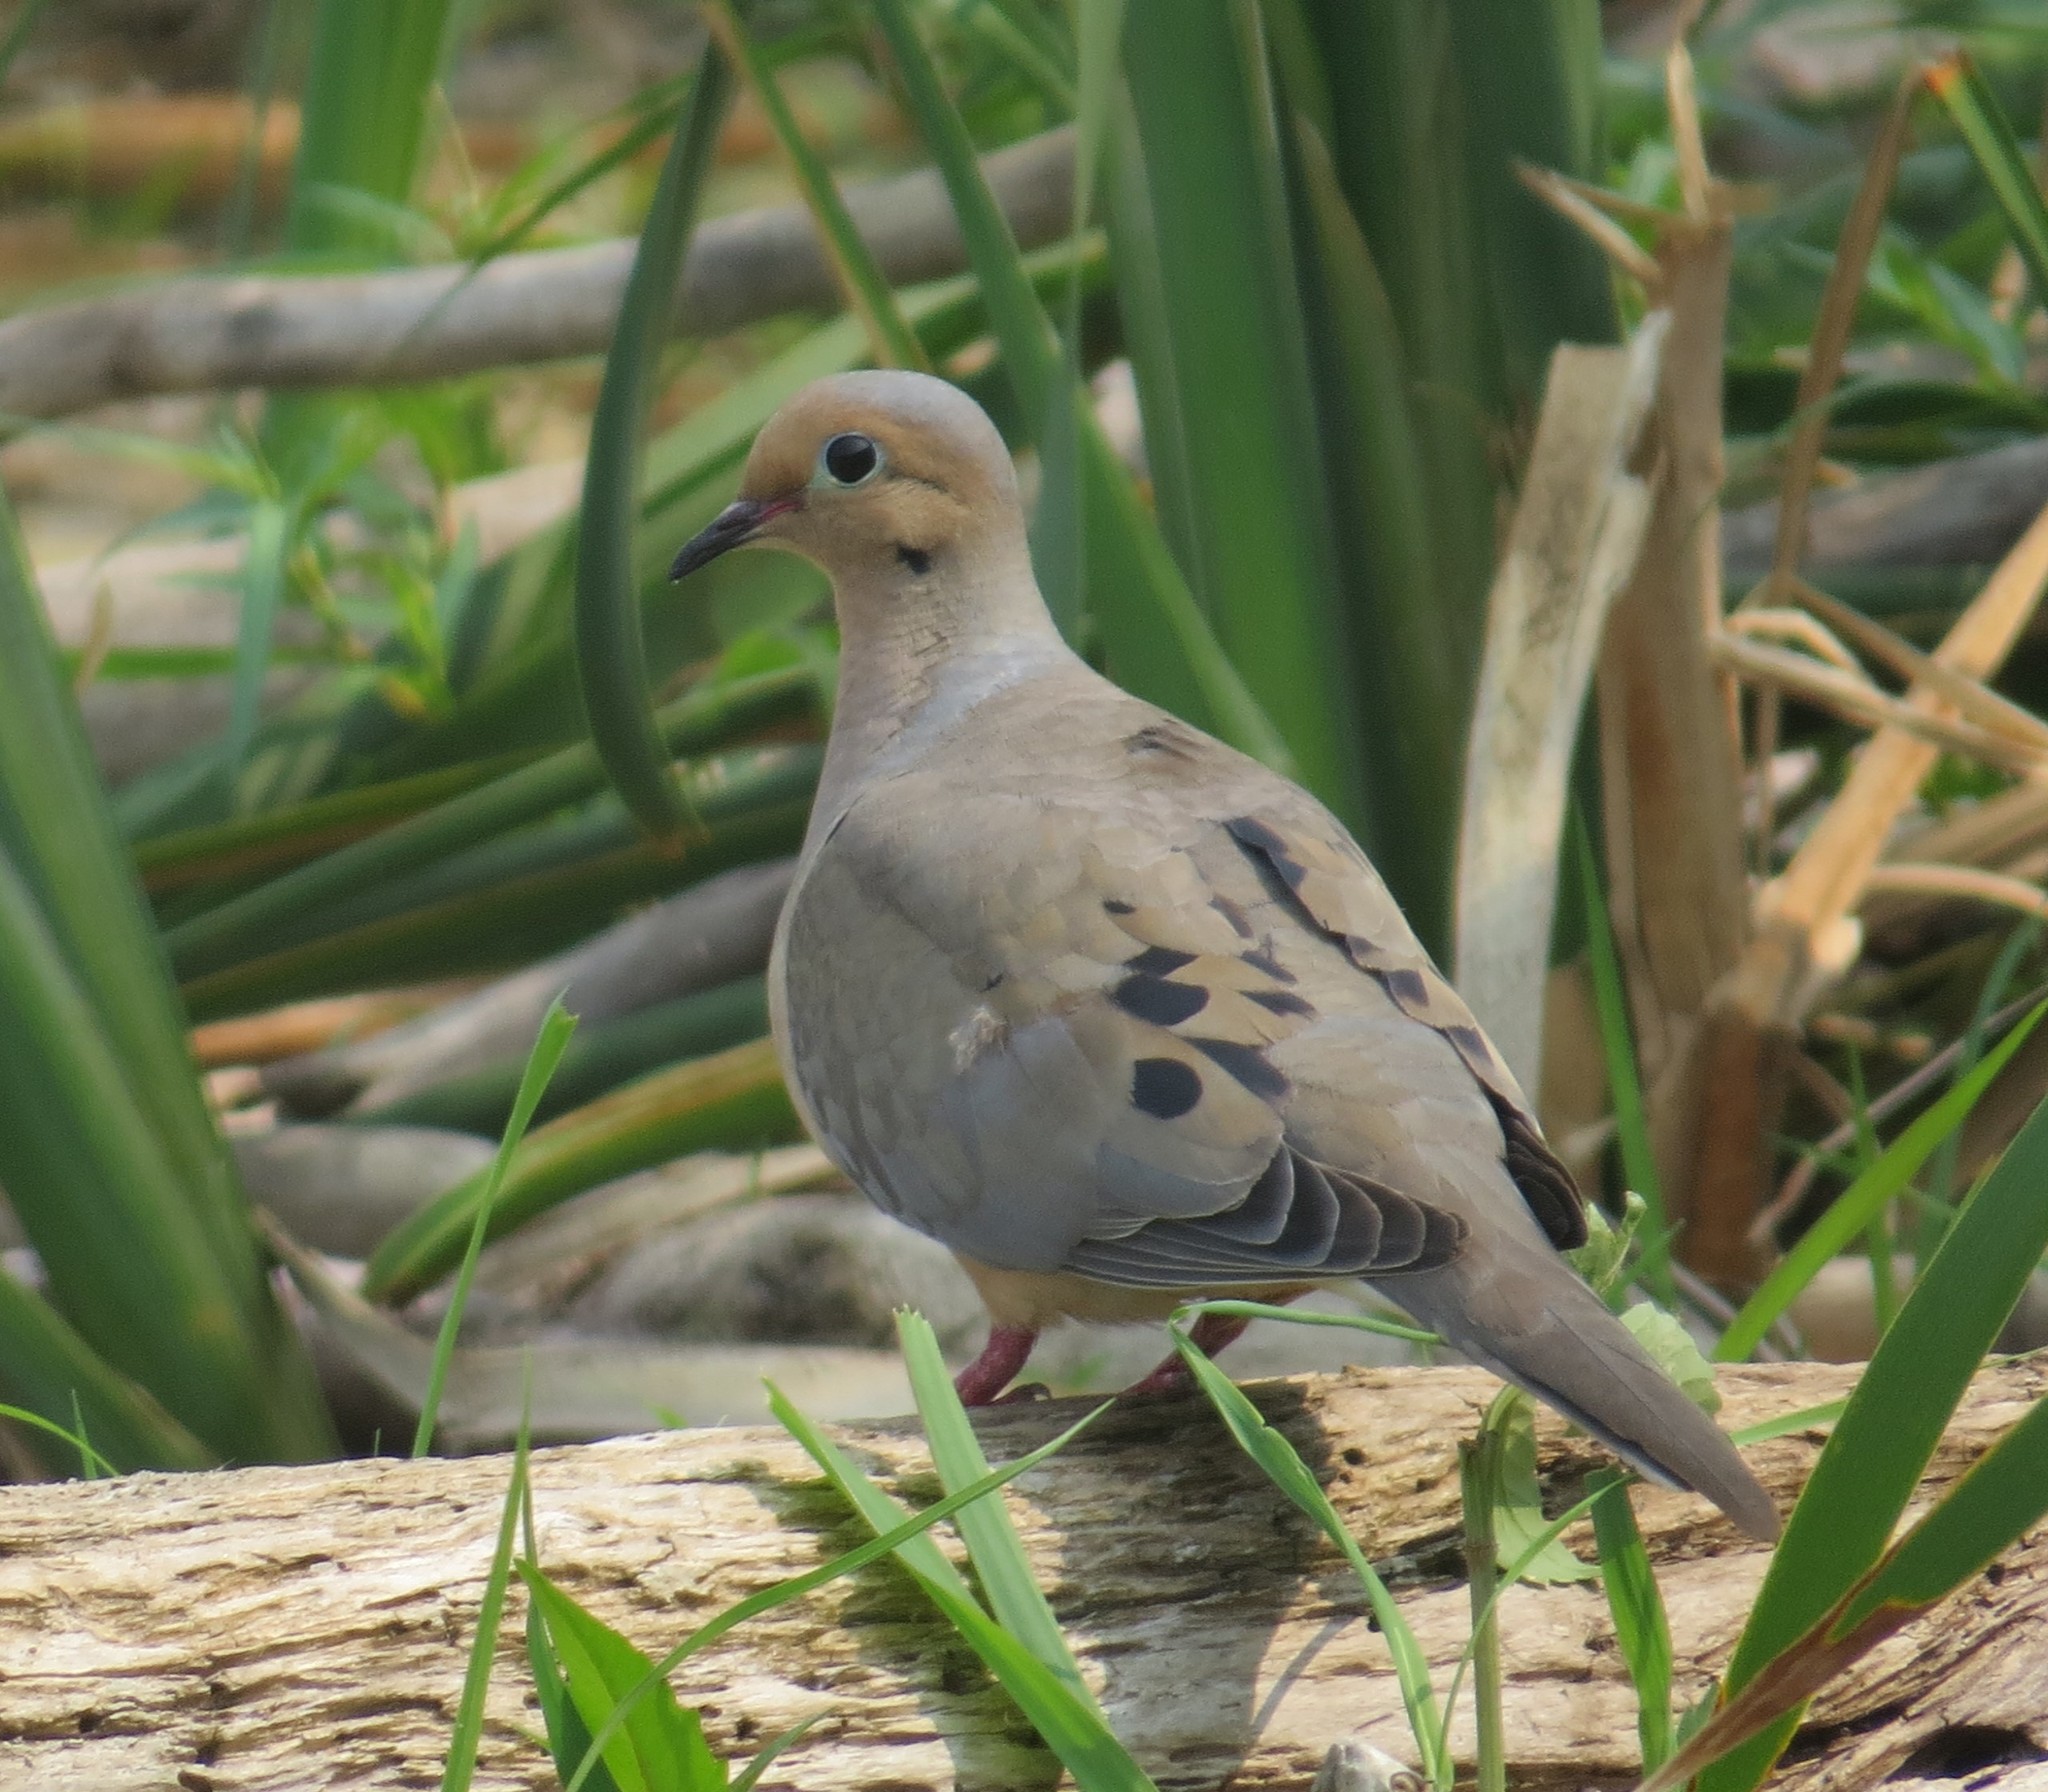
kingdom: Animalia
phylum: Chordata
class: Aves
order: Columbiformes
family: Columbidae
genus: Zenaida
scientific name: Zenaida macroura
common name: Mourning dove
